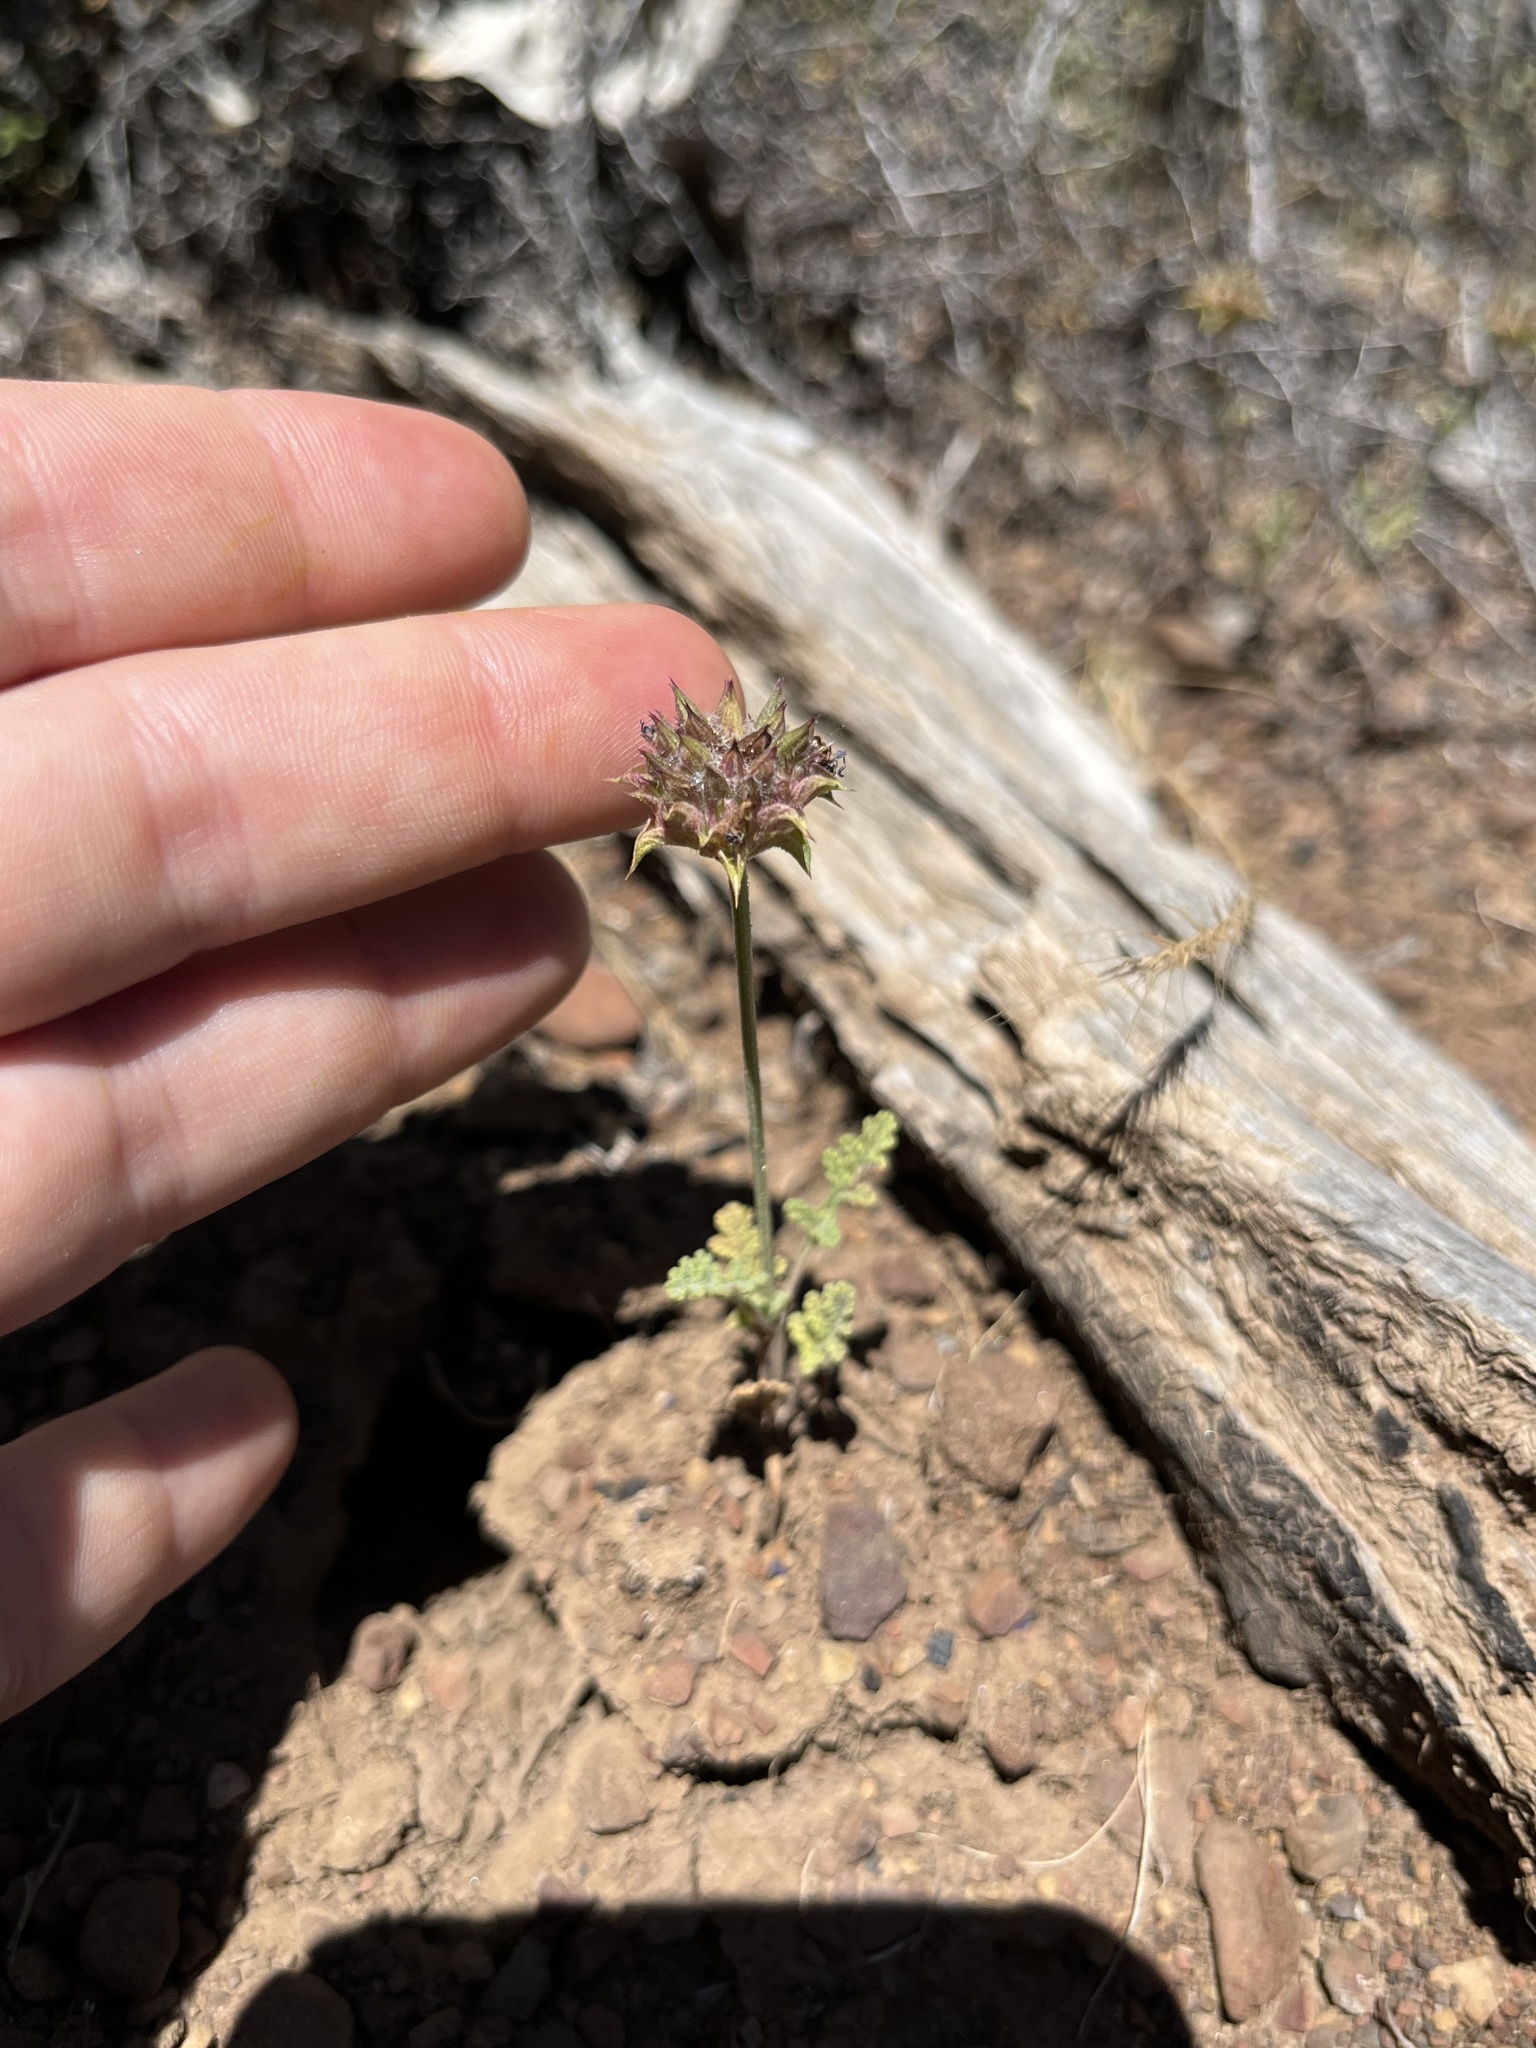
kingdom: Plantae
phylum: Tracheophyta
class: Magnoliopsida
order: Lamiales
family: Lamiaceae
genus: Salvia
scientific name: Salvia columbariae
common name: Chia
